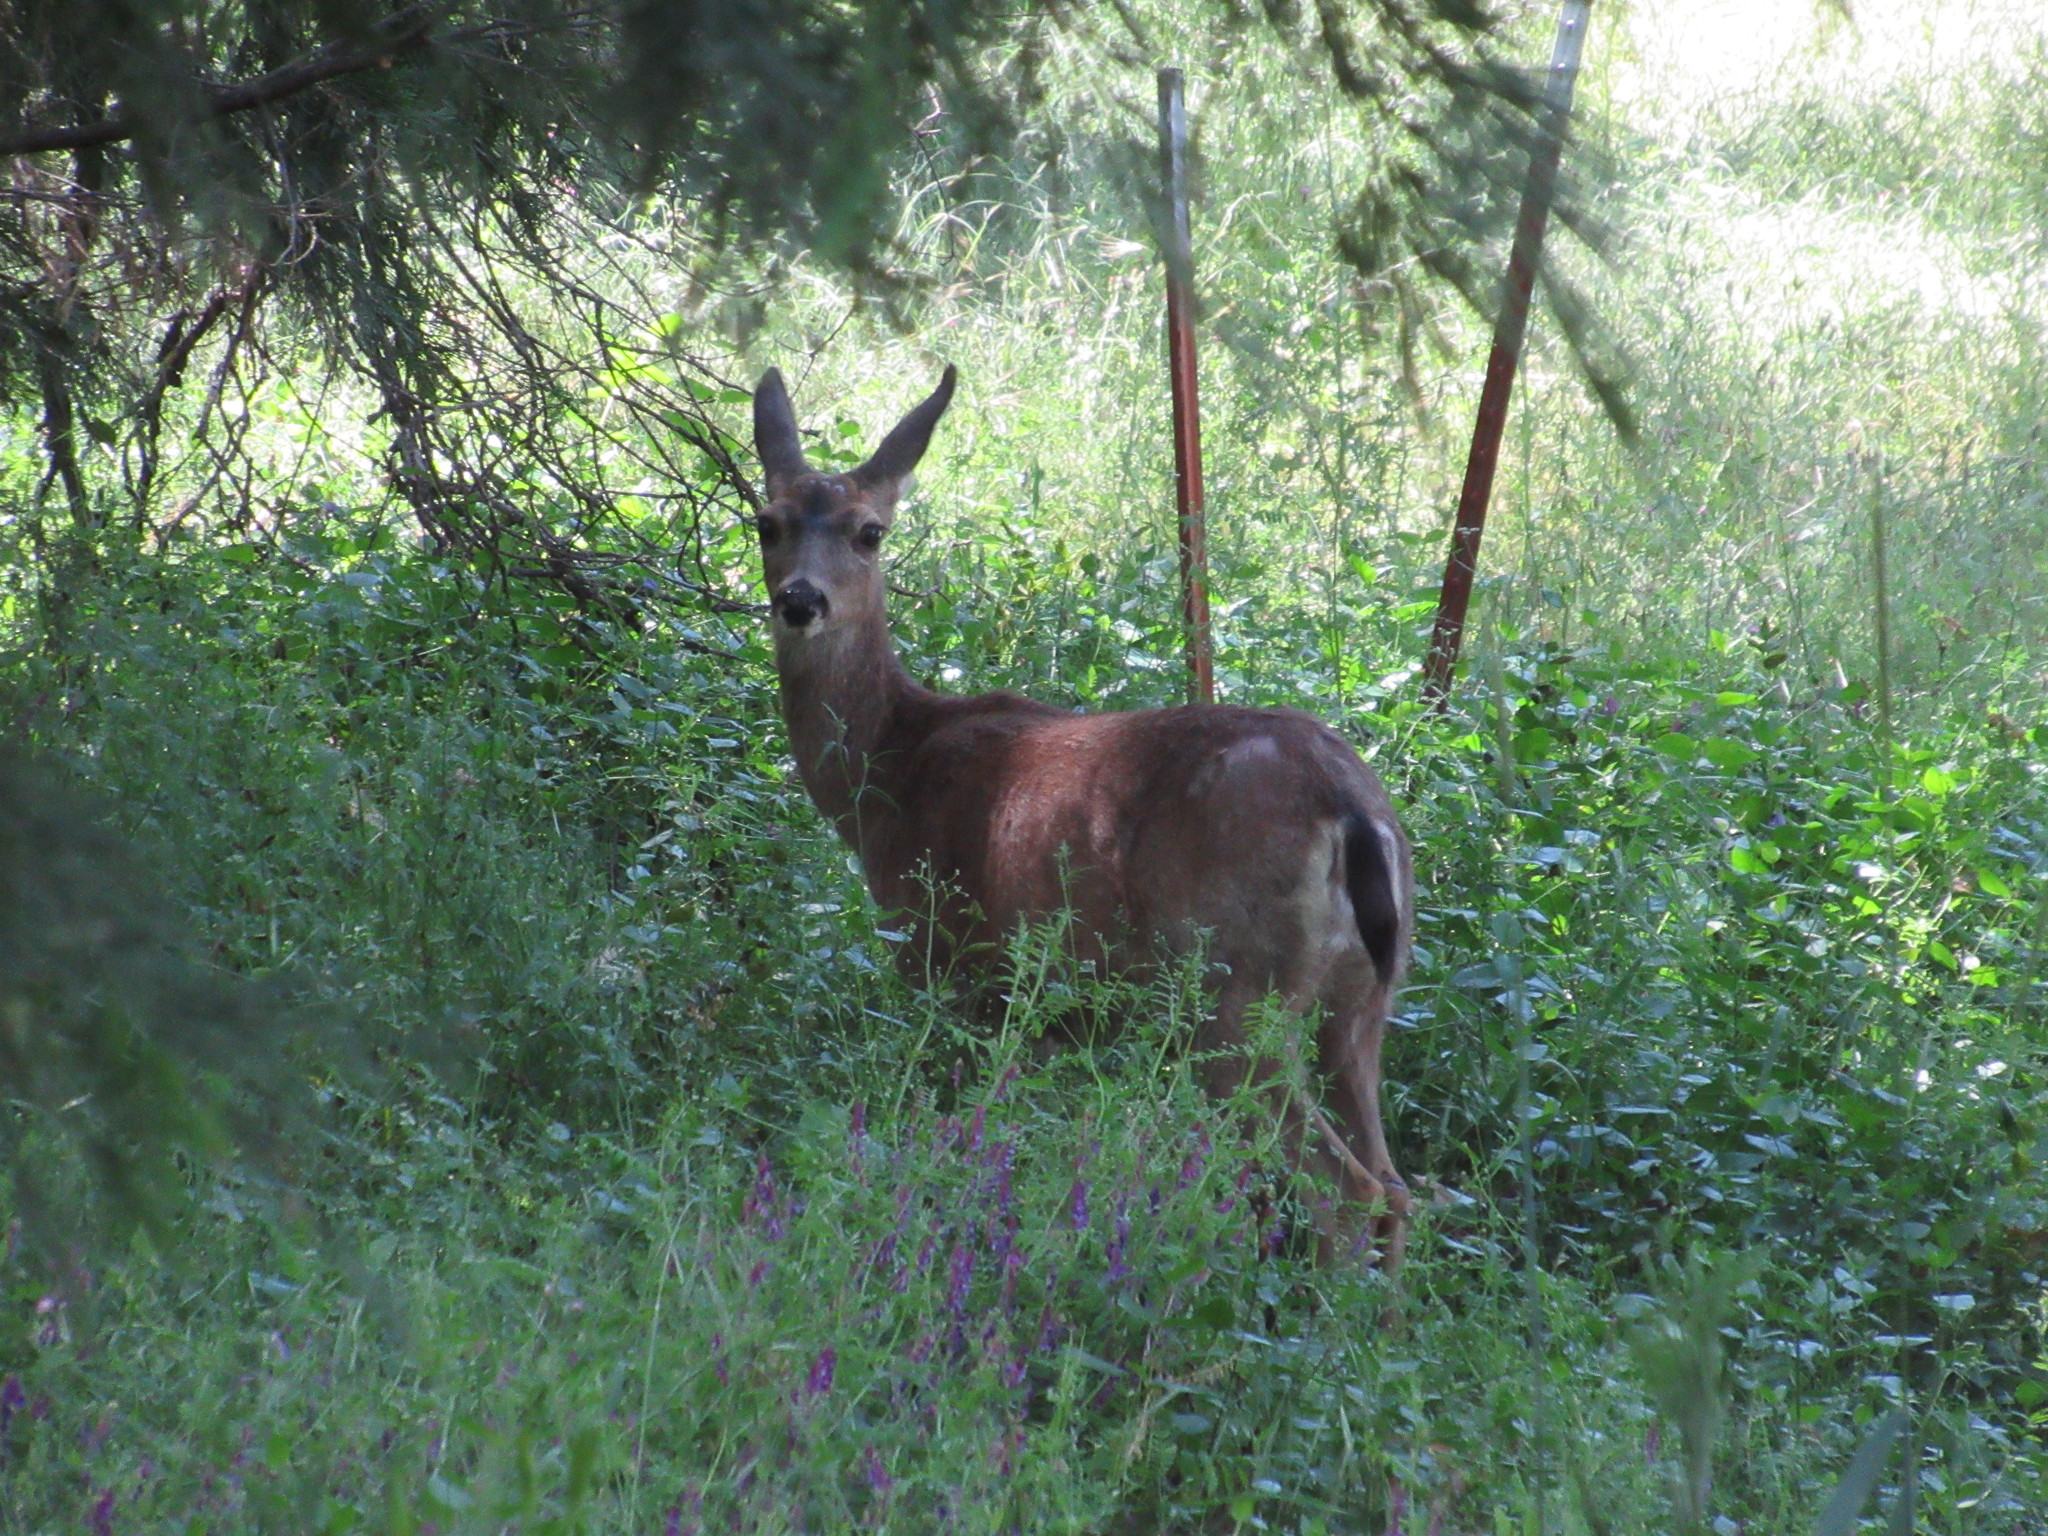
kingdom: Animalia
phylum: Chordata
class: Mammalia
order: Artiodactyla
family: Cervidae
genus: Odocoileus
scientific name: Odocoileus hemionus
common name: Mule deer
